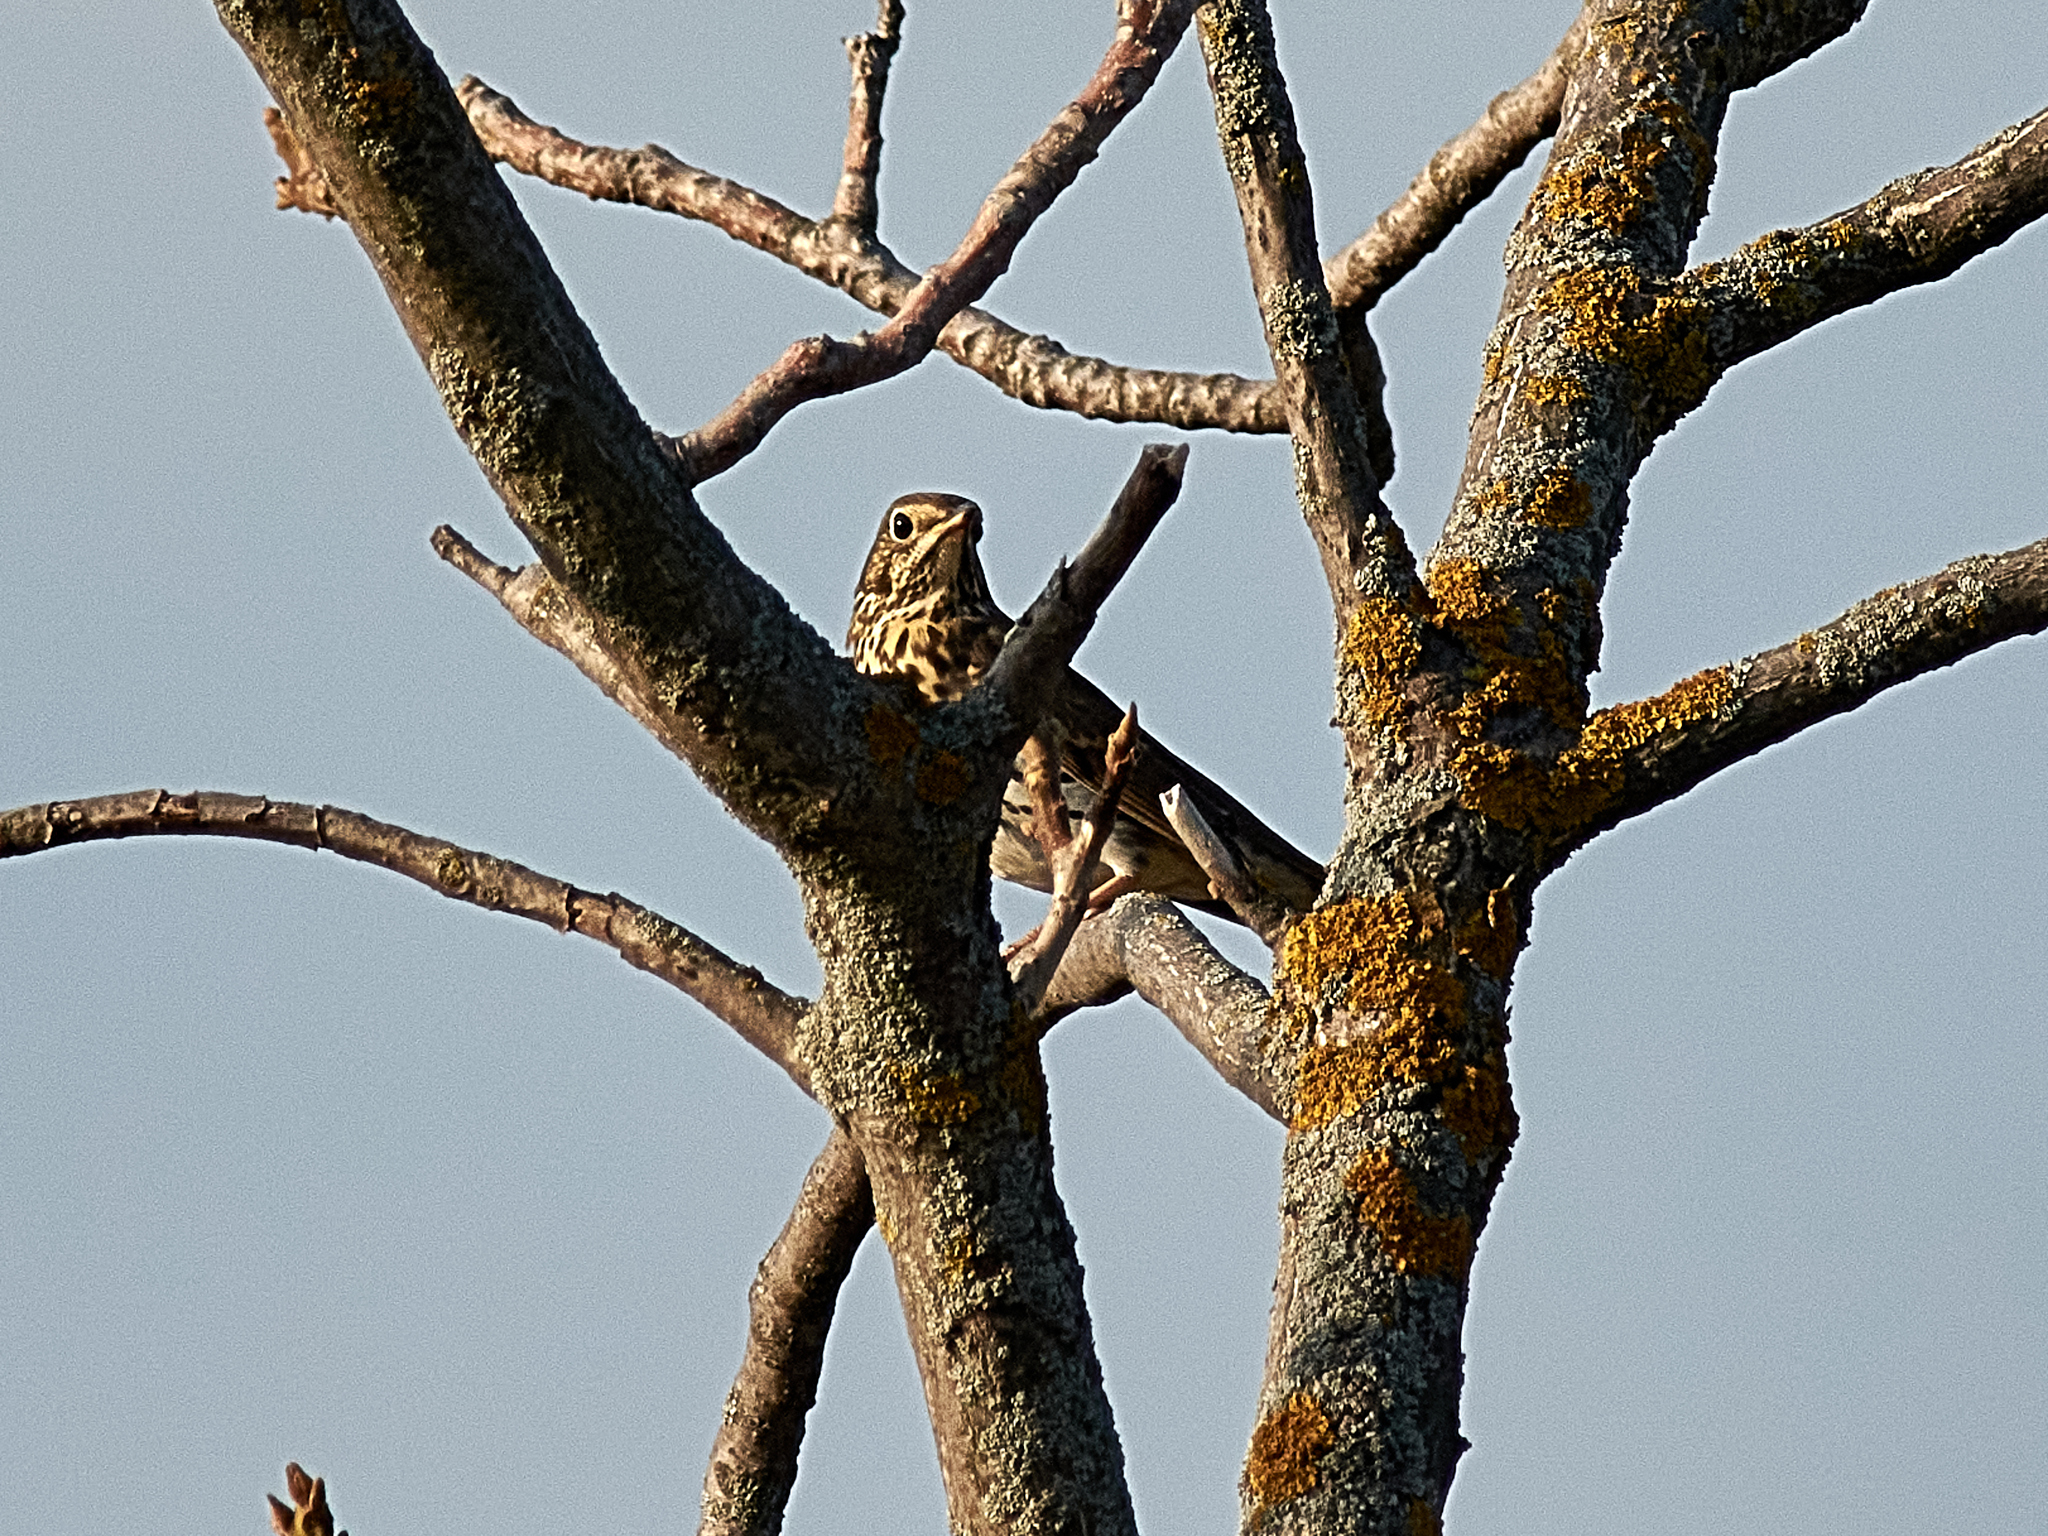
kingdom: Animalia
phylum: Chordata
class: Aves
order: Passeriformes
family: Turdidae
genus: Turdus
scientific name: Turdus philomelos
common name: Song thrush
